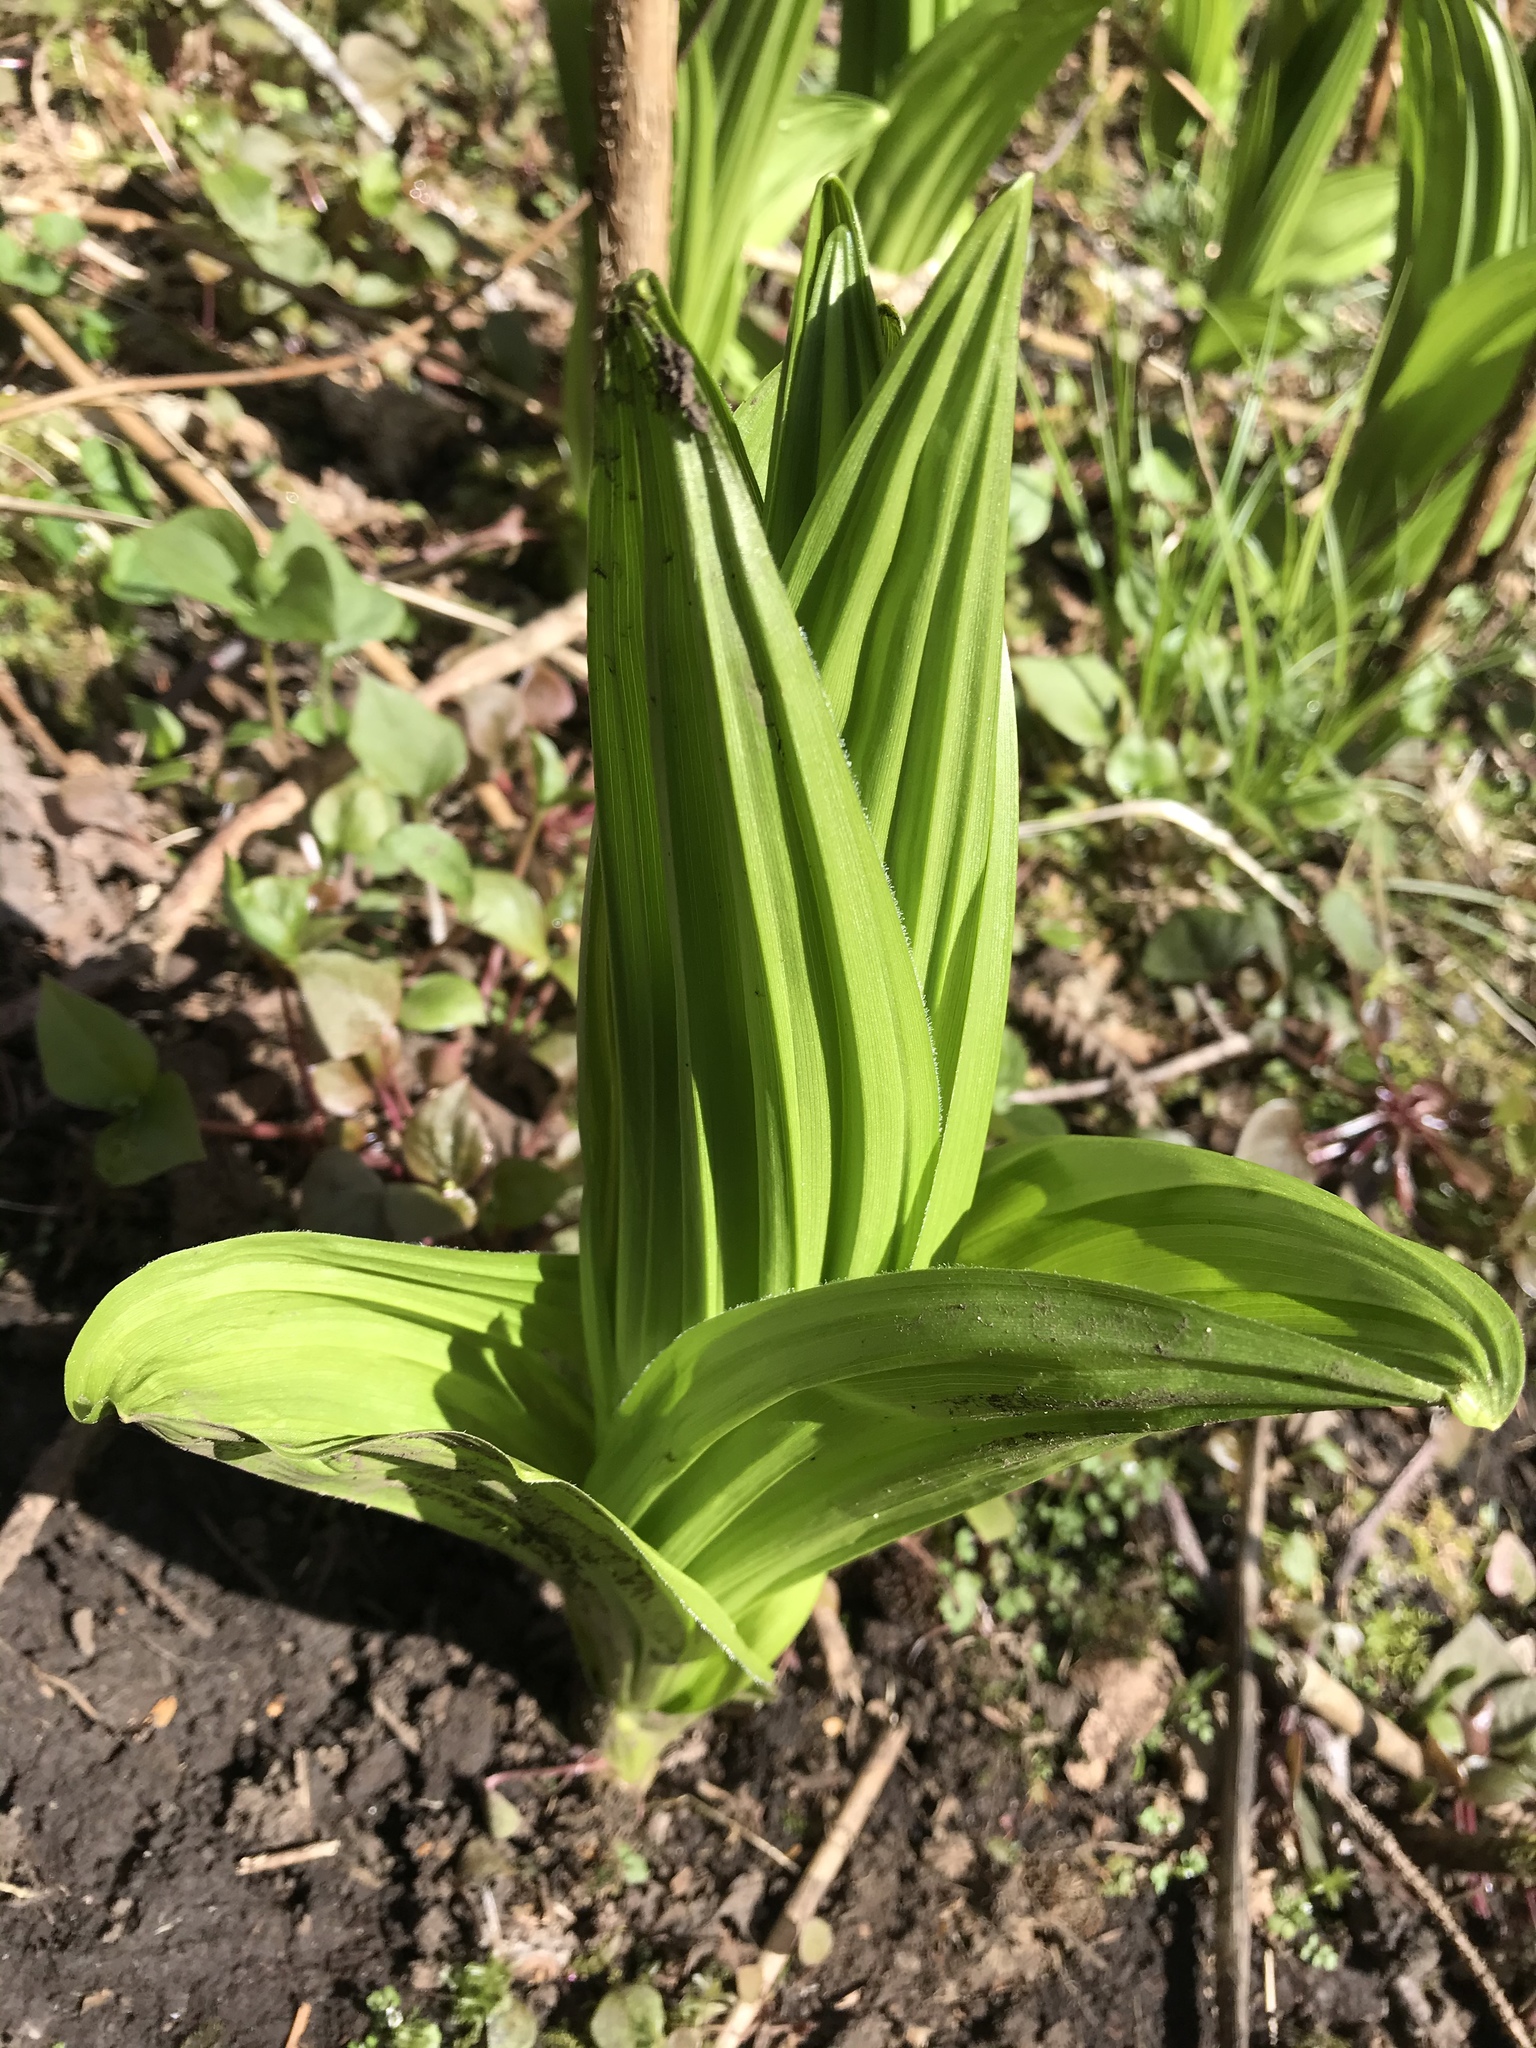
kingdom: Plantae
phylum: Tracheophyta
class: Liliopsida
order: Liliales
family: Melanthiaceae
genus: Veratrum
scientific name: Veratrum californicum
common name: California veratrum
